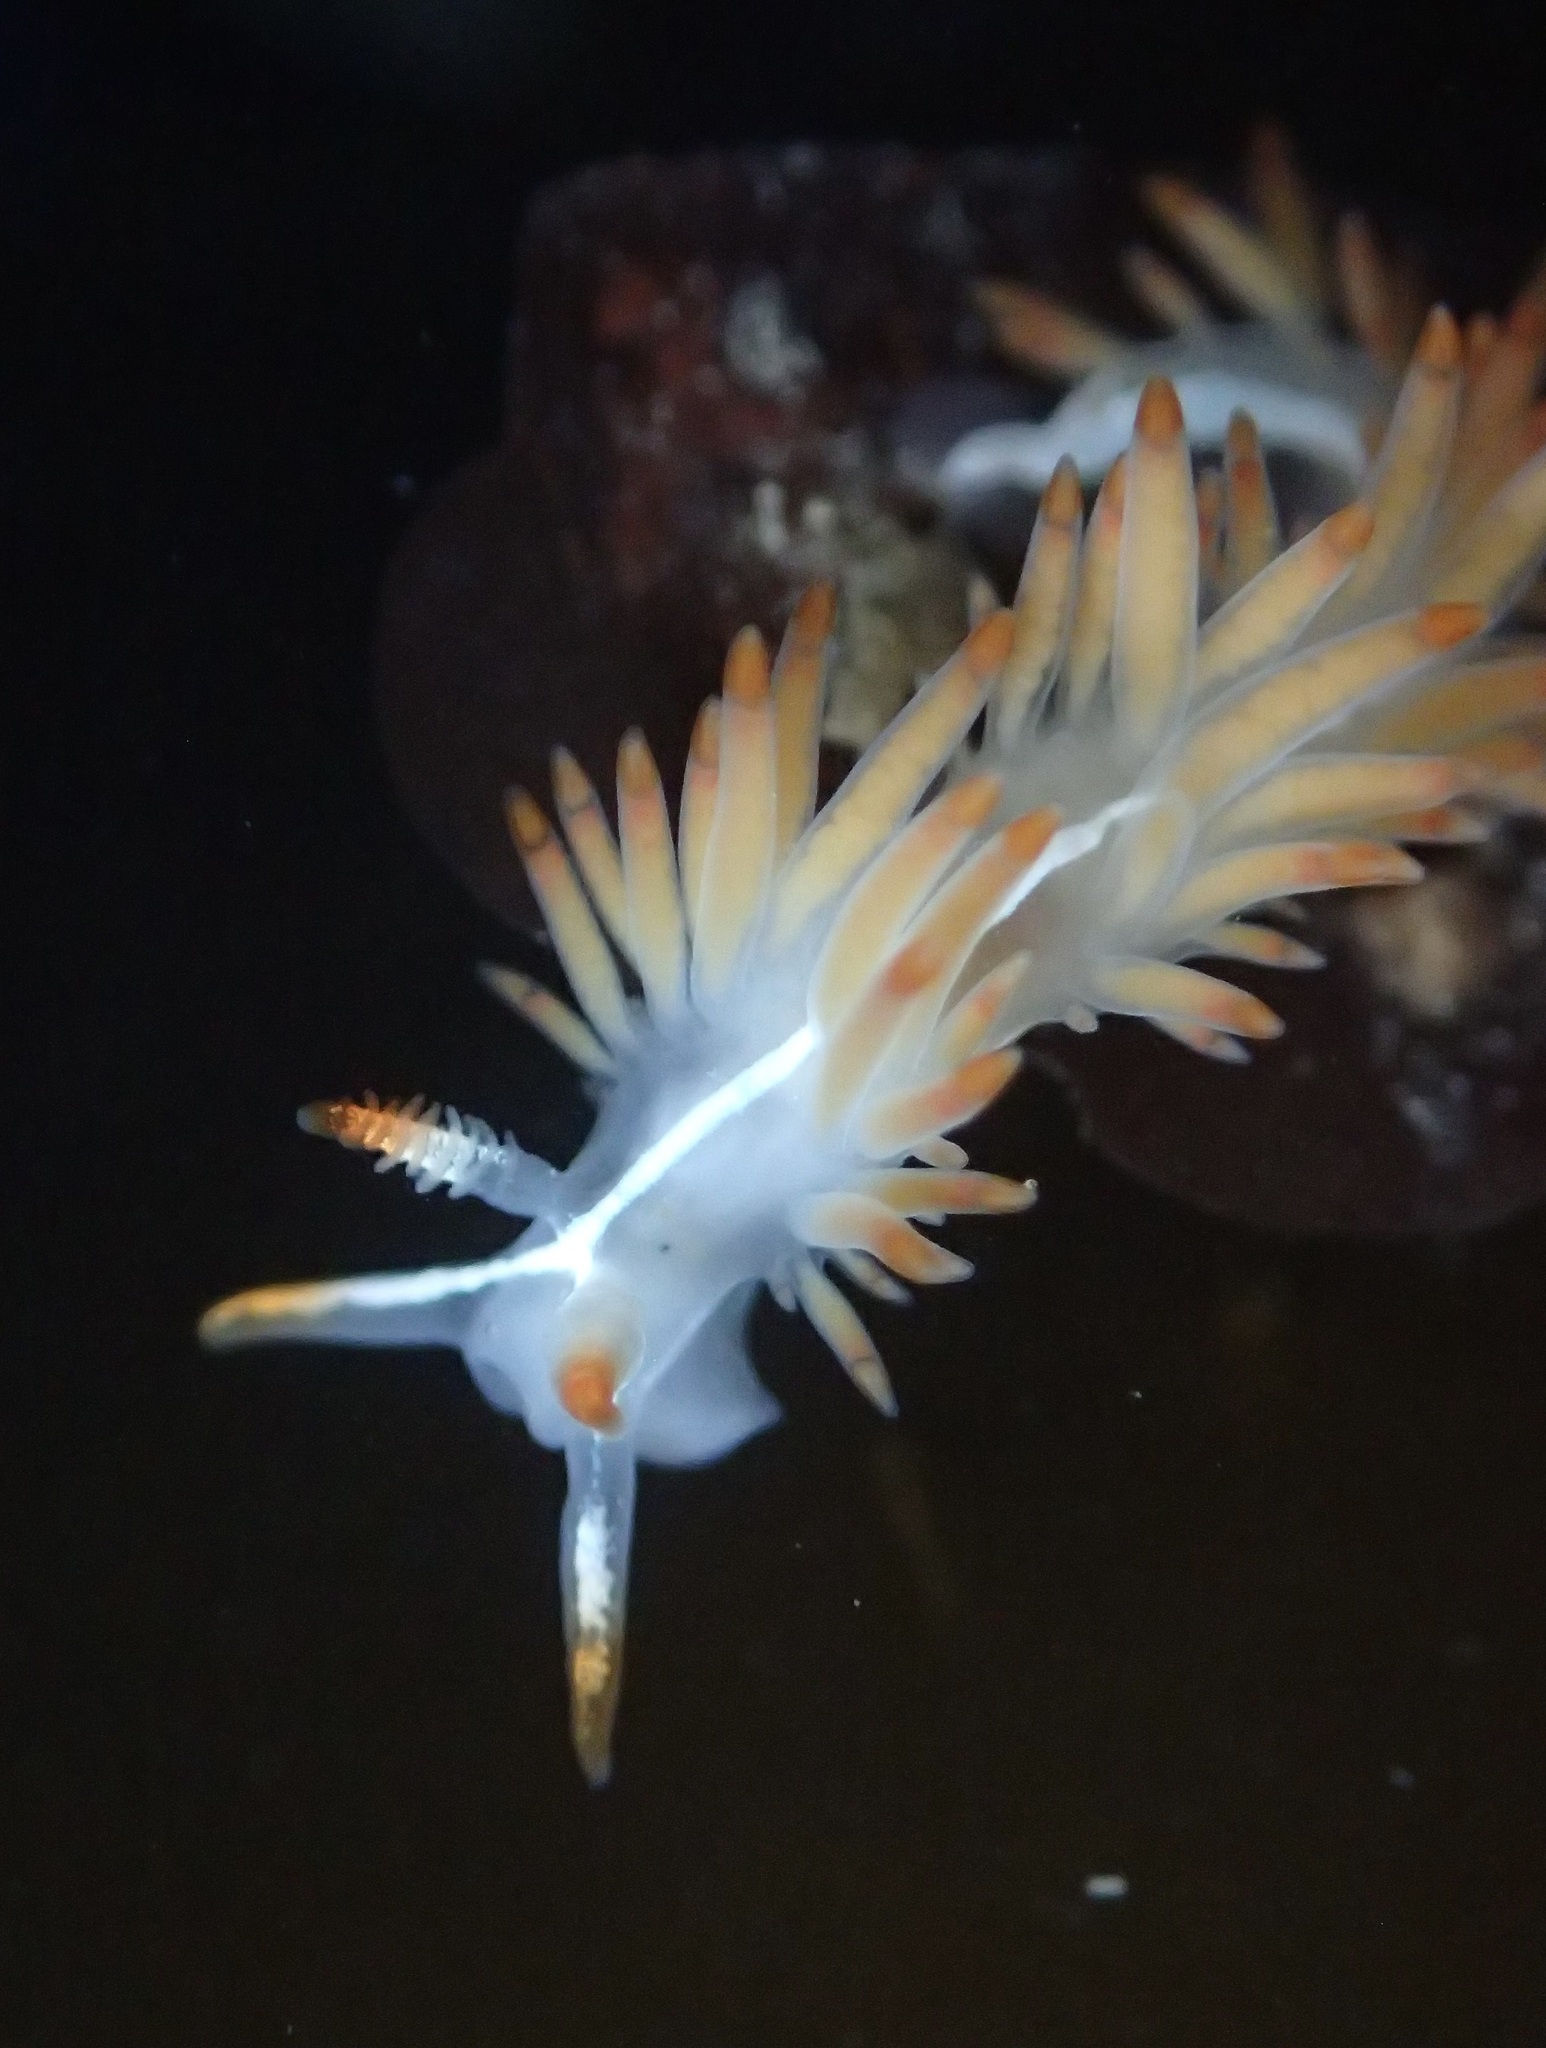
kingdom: Animalia
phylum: Mollusca
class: Gastropoda
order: Nudibranchia
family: Coryphellidae
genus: Coryphella
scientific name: Coryphella trilineata
